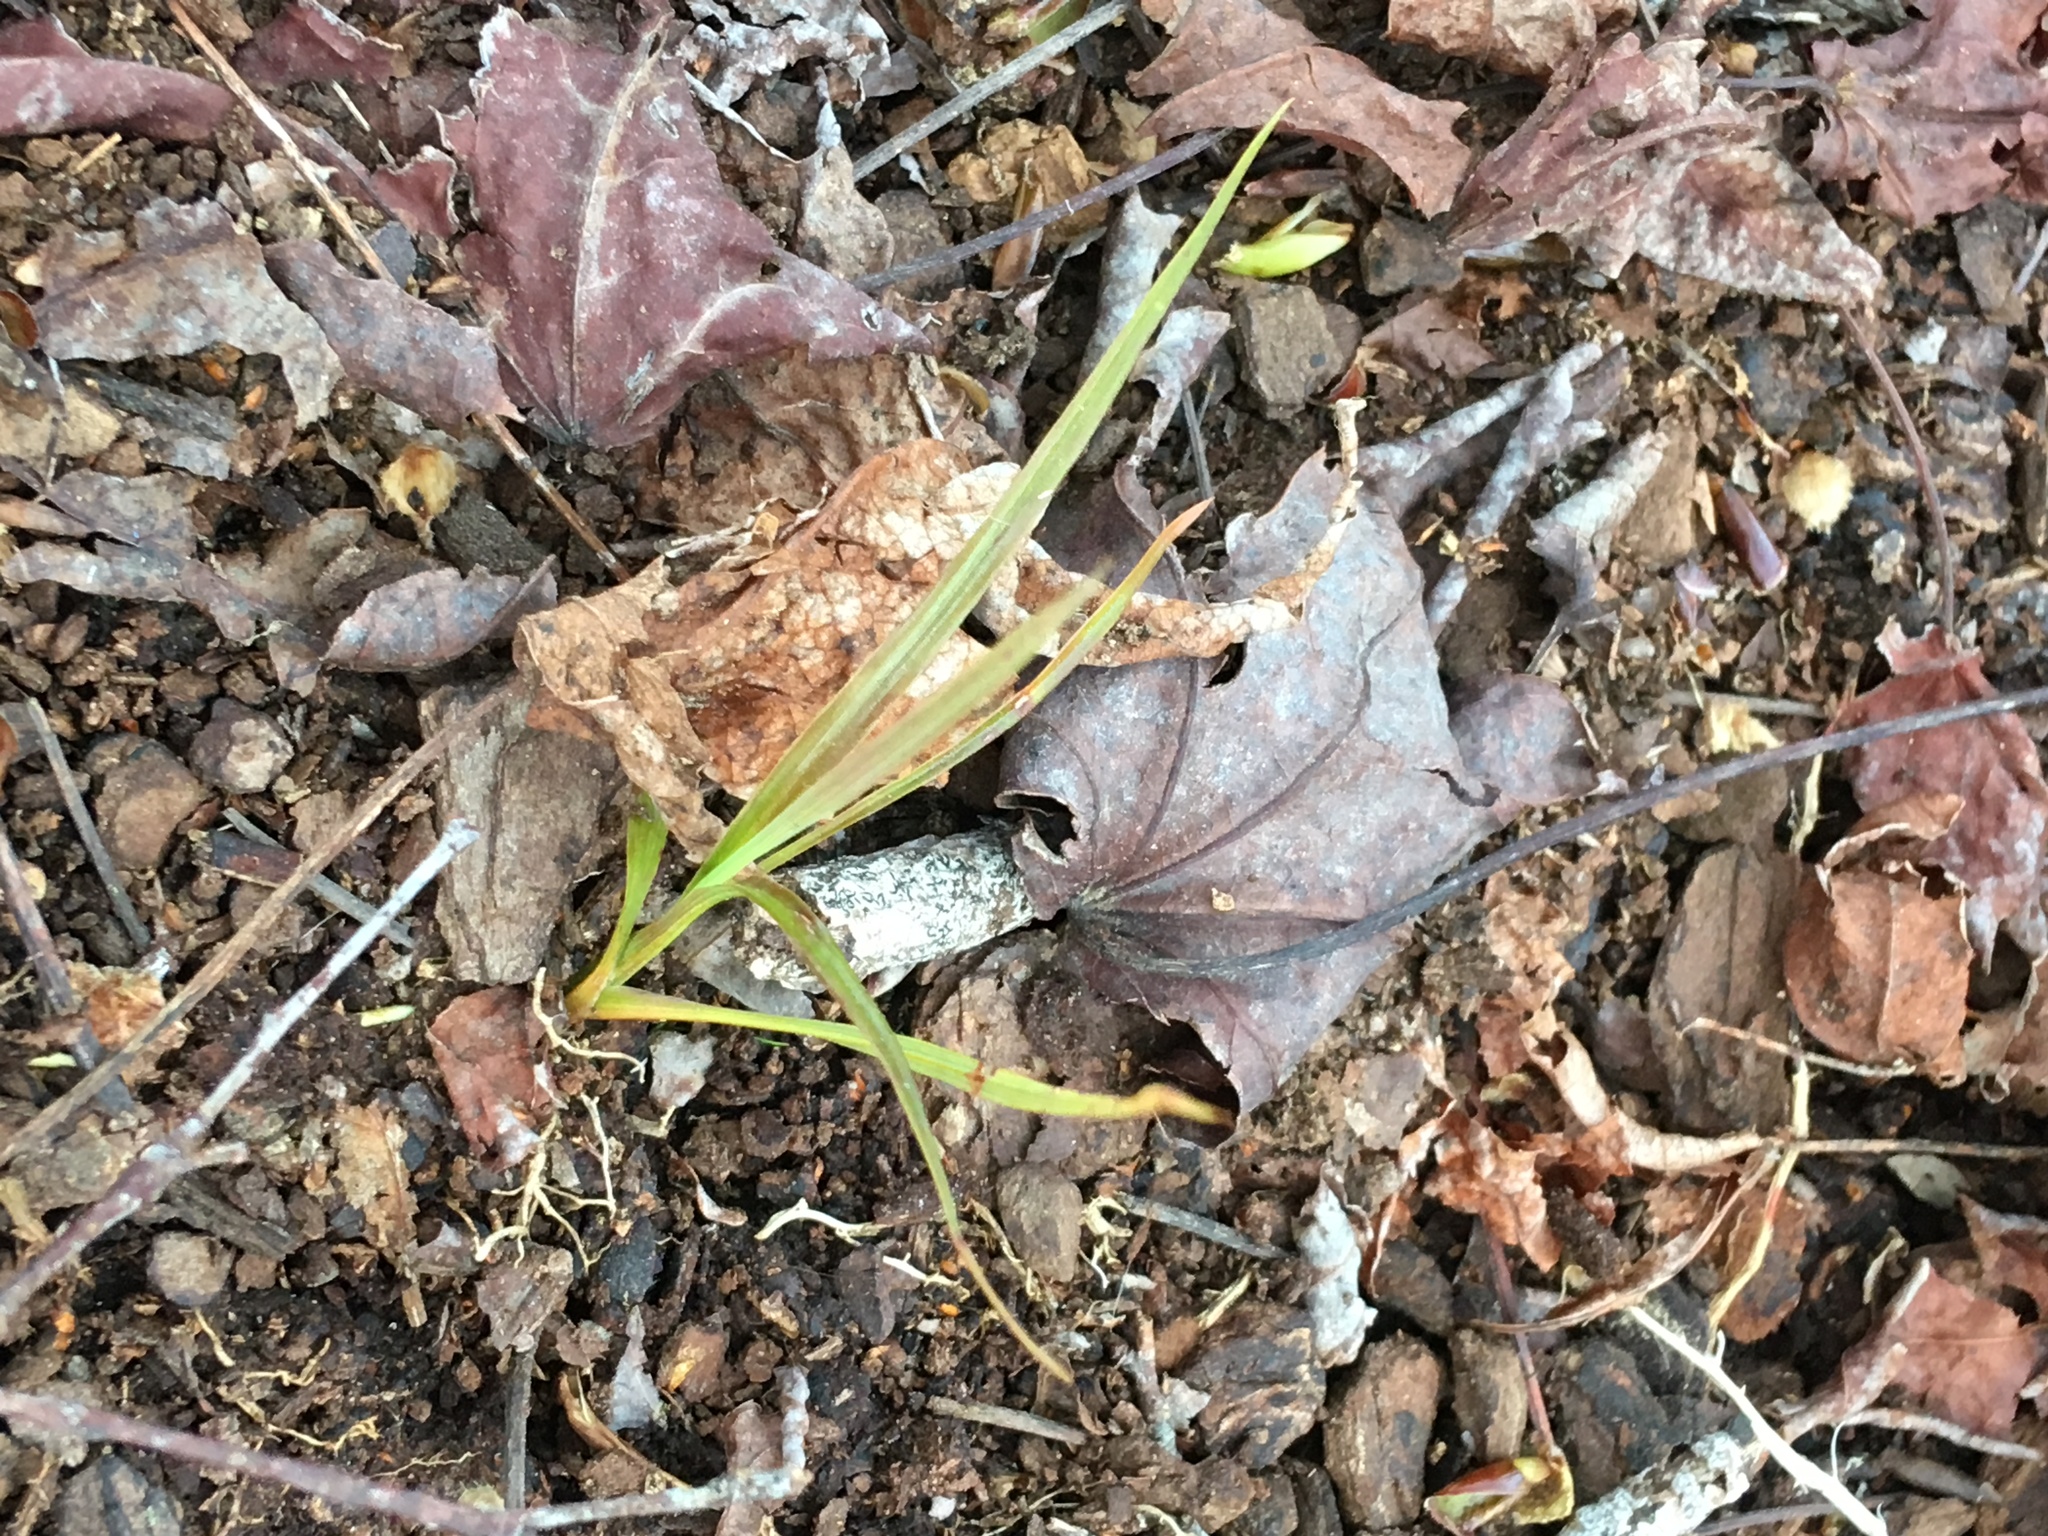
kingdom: Plantae
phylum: Tracheophyta
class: Liliopsida
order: Asparagales
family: Asparagaceae
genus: Cordyline
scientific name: Cordyline australis
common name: Cabbage-palm
